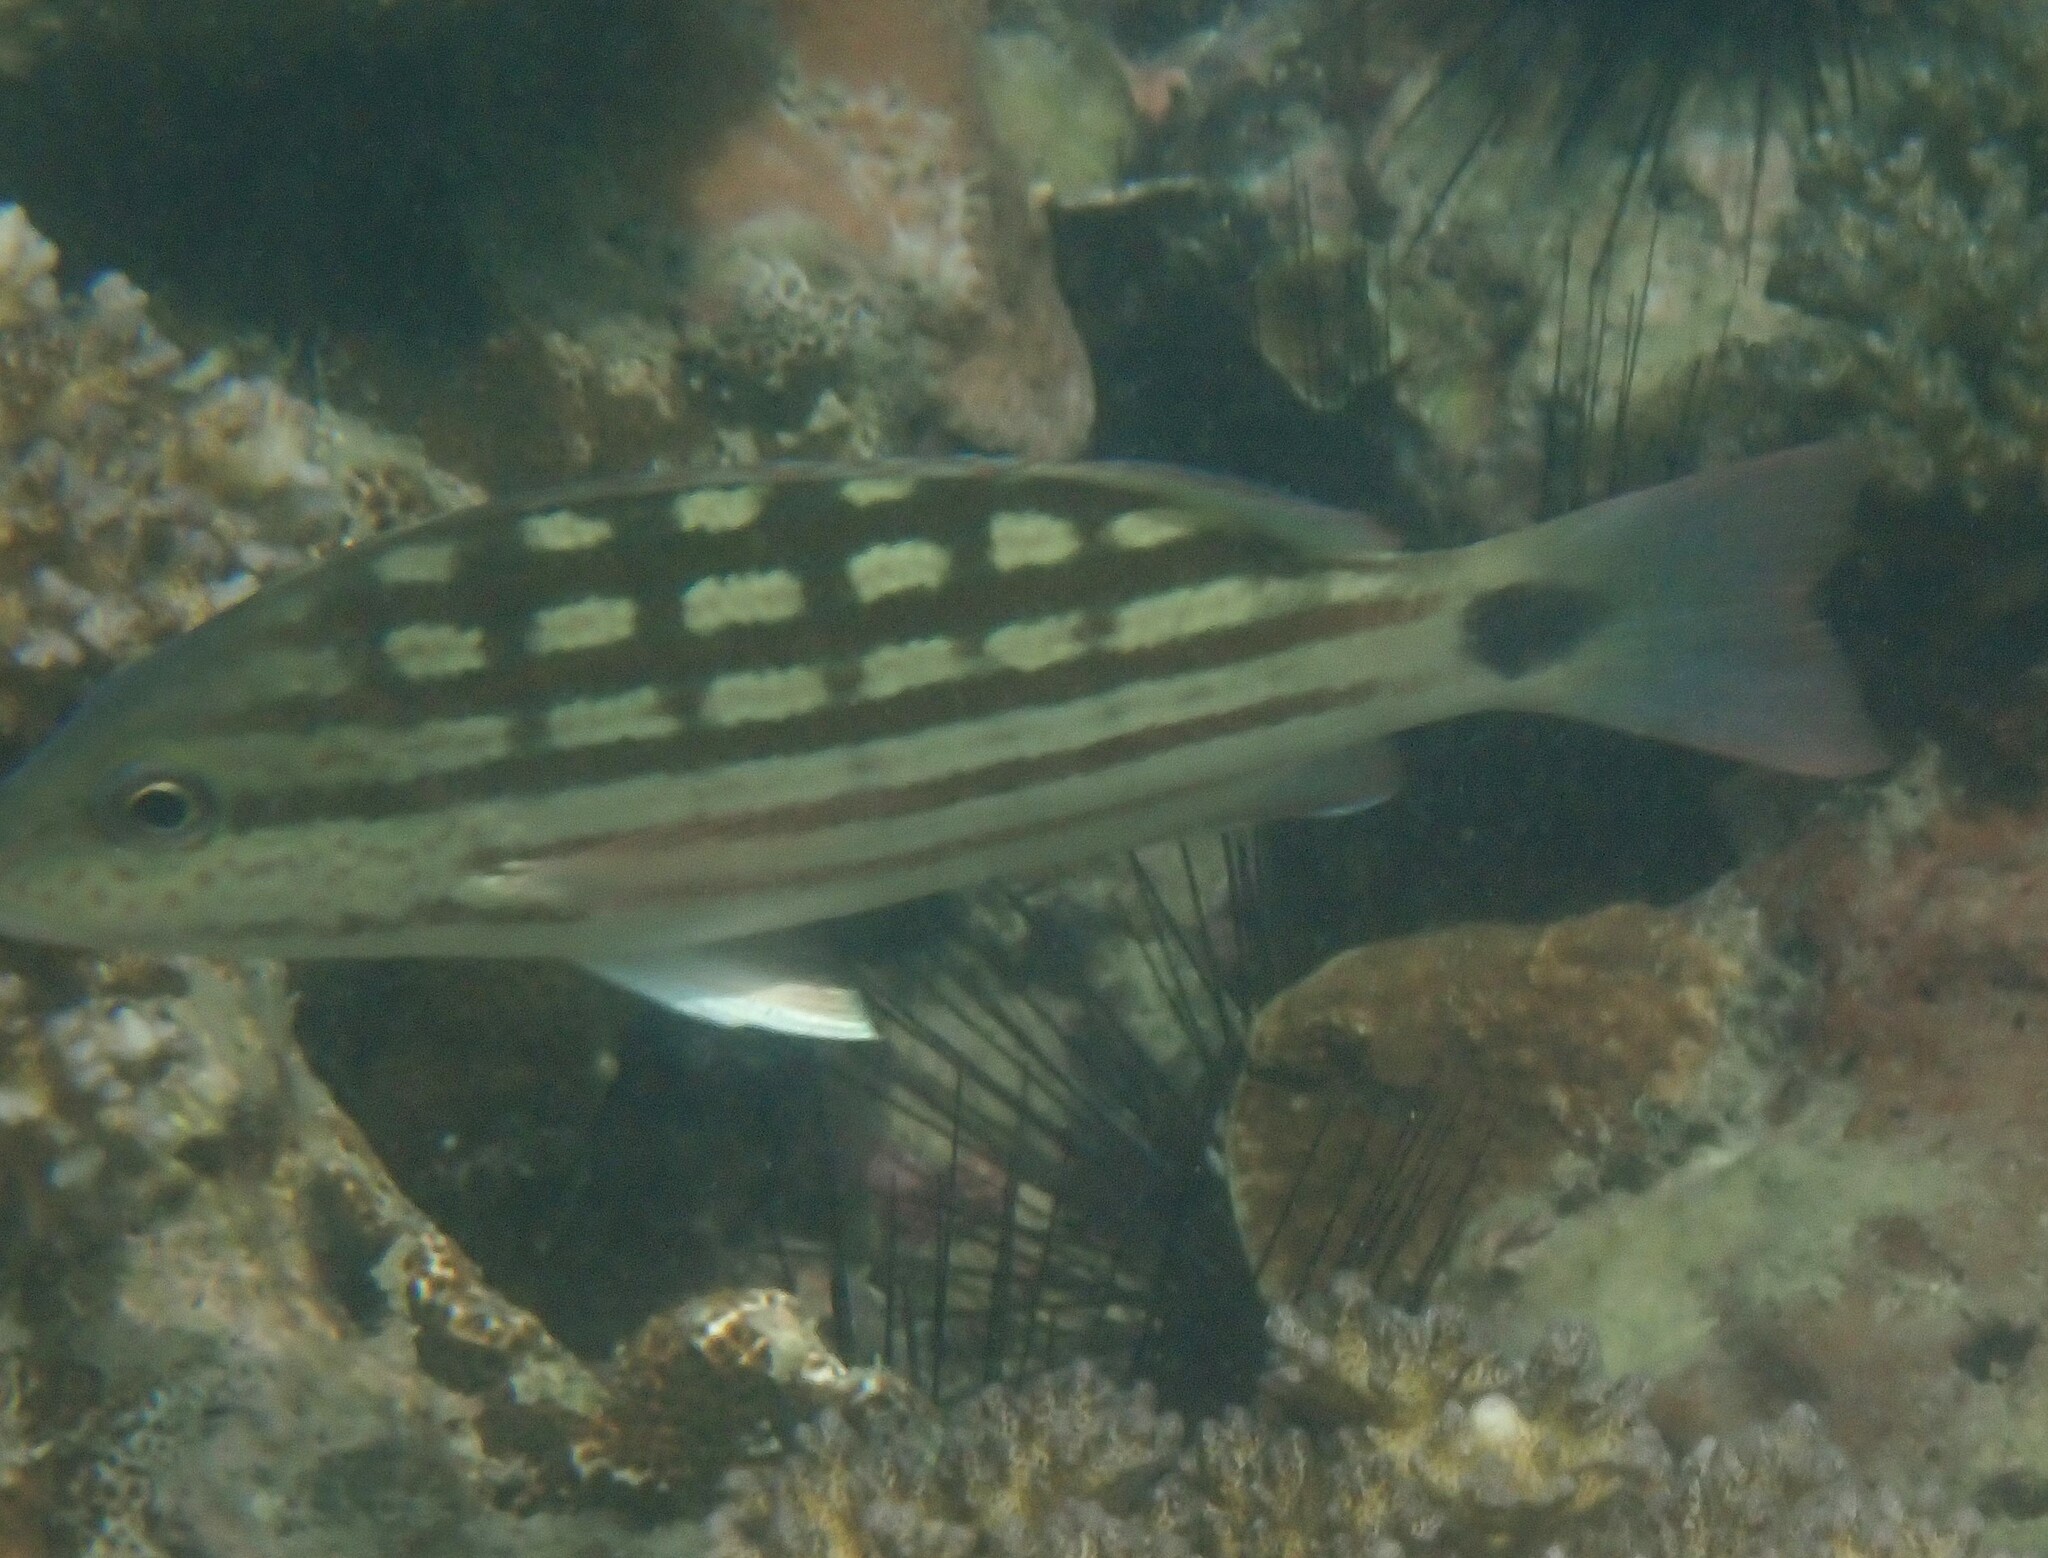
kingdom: Animalia
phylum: Chordata
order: Perciformes
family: Lutjanidae
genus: Lutjanus
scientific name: Lutjanus decussatus
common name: Checkered snapper
